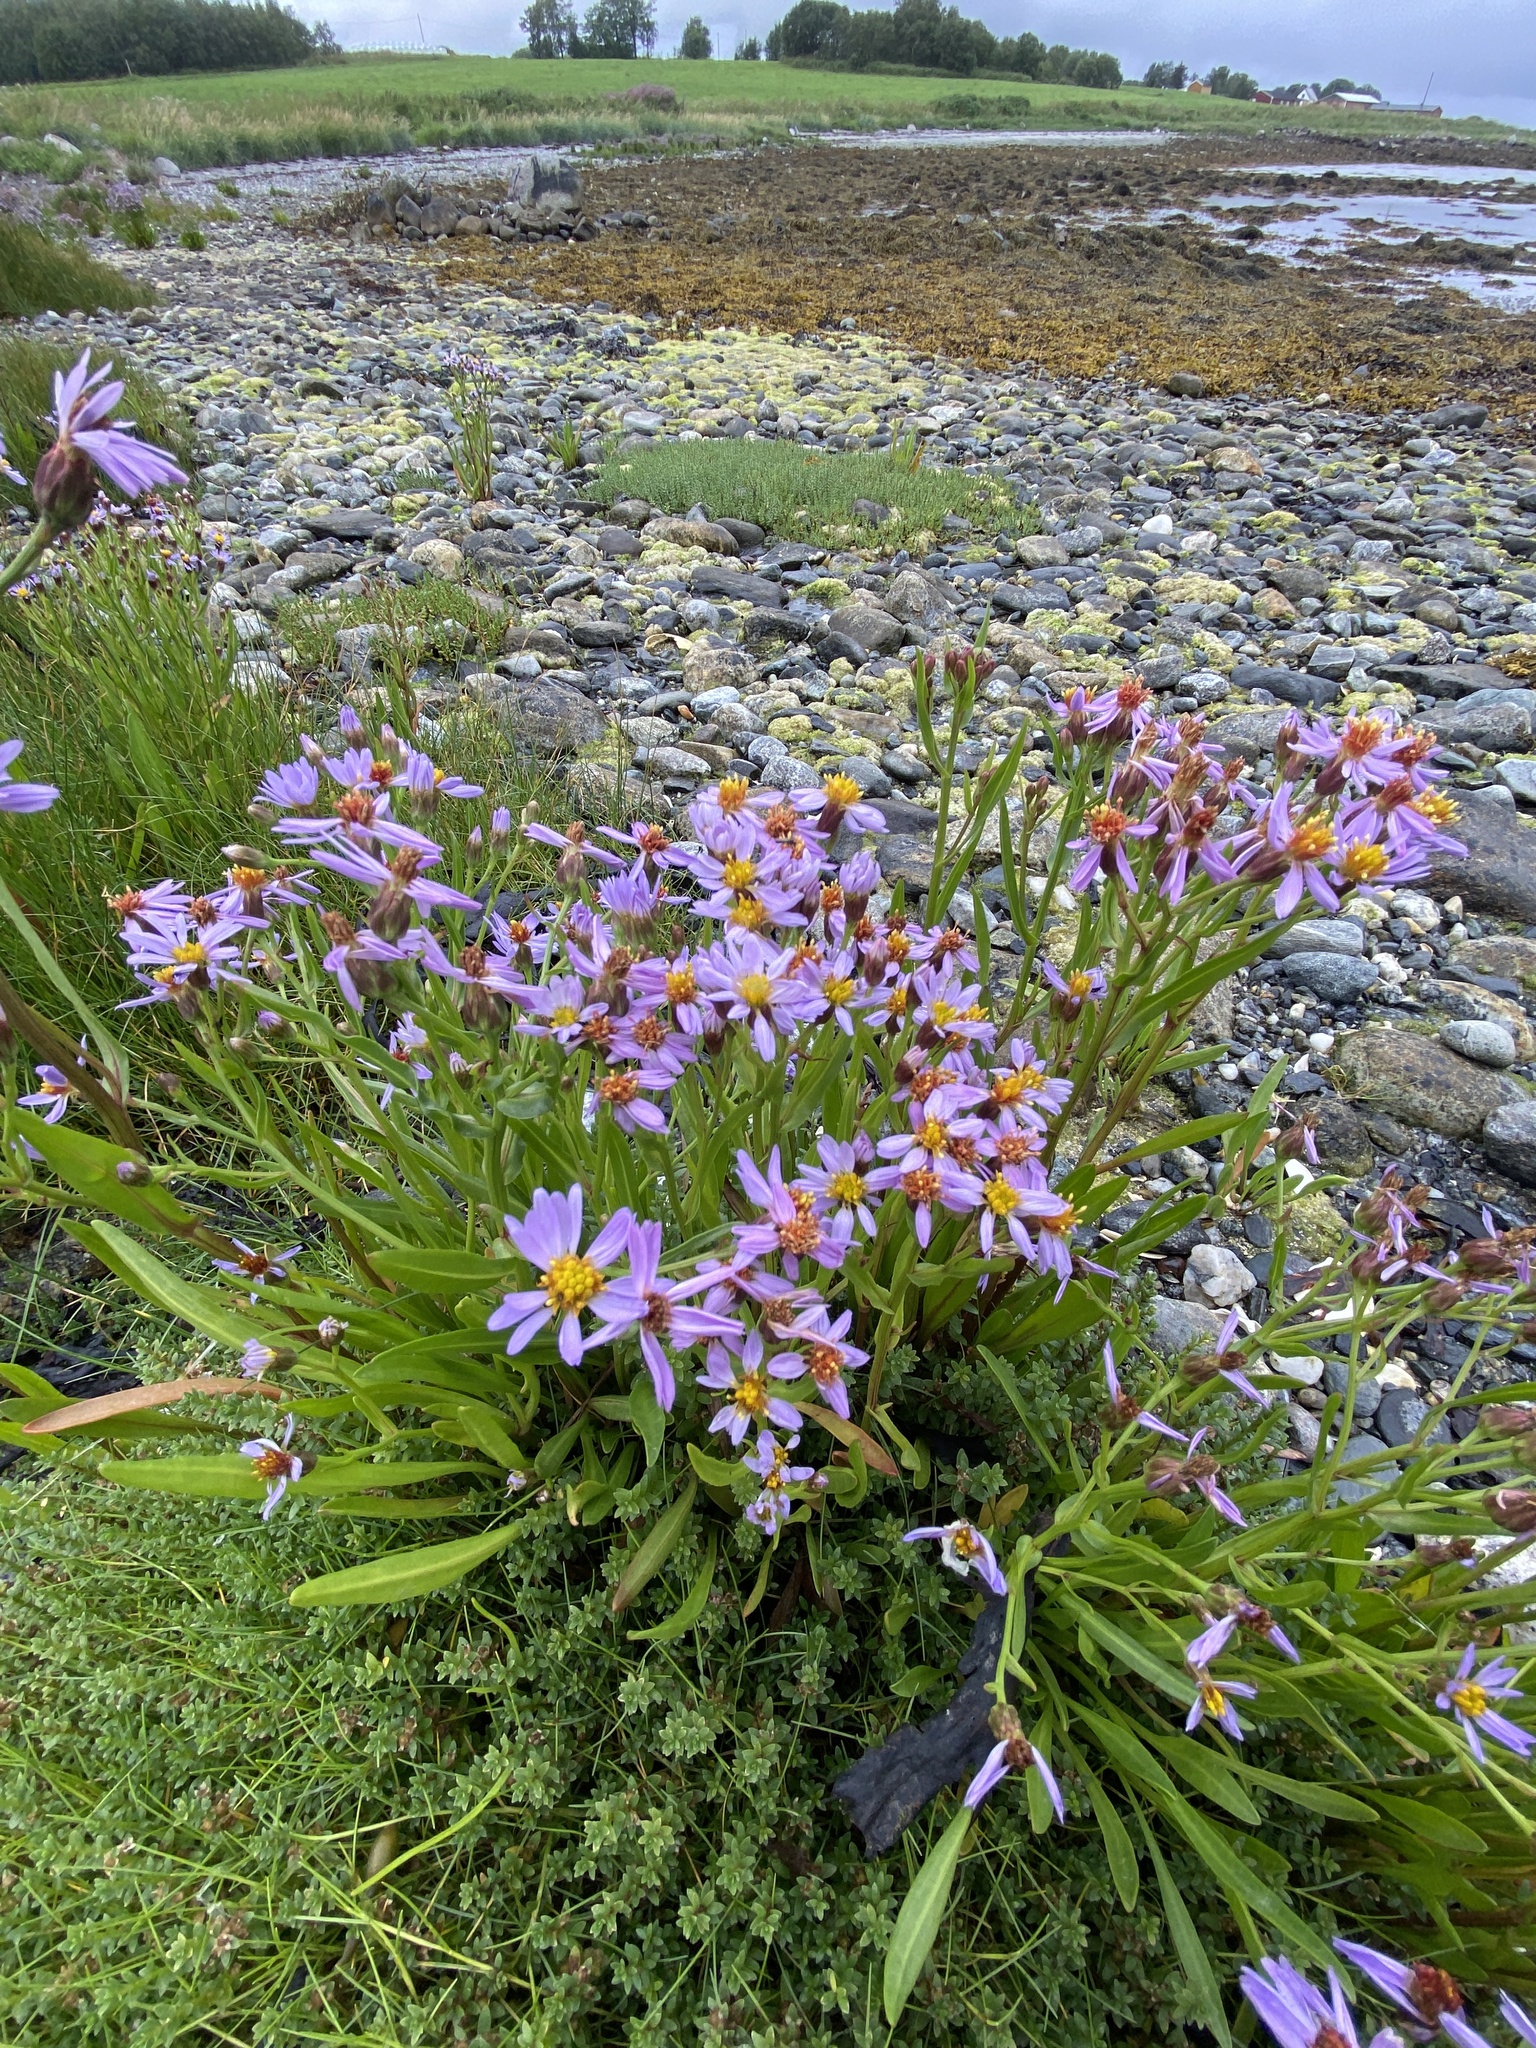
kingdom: Plantae
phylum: Tracheophyta
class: Magnoliopsida
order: Asterales
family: Asteraceae
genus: Tripolium
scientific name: Tripolium pannonicum
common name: Sea aster
